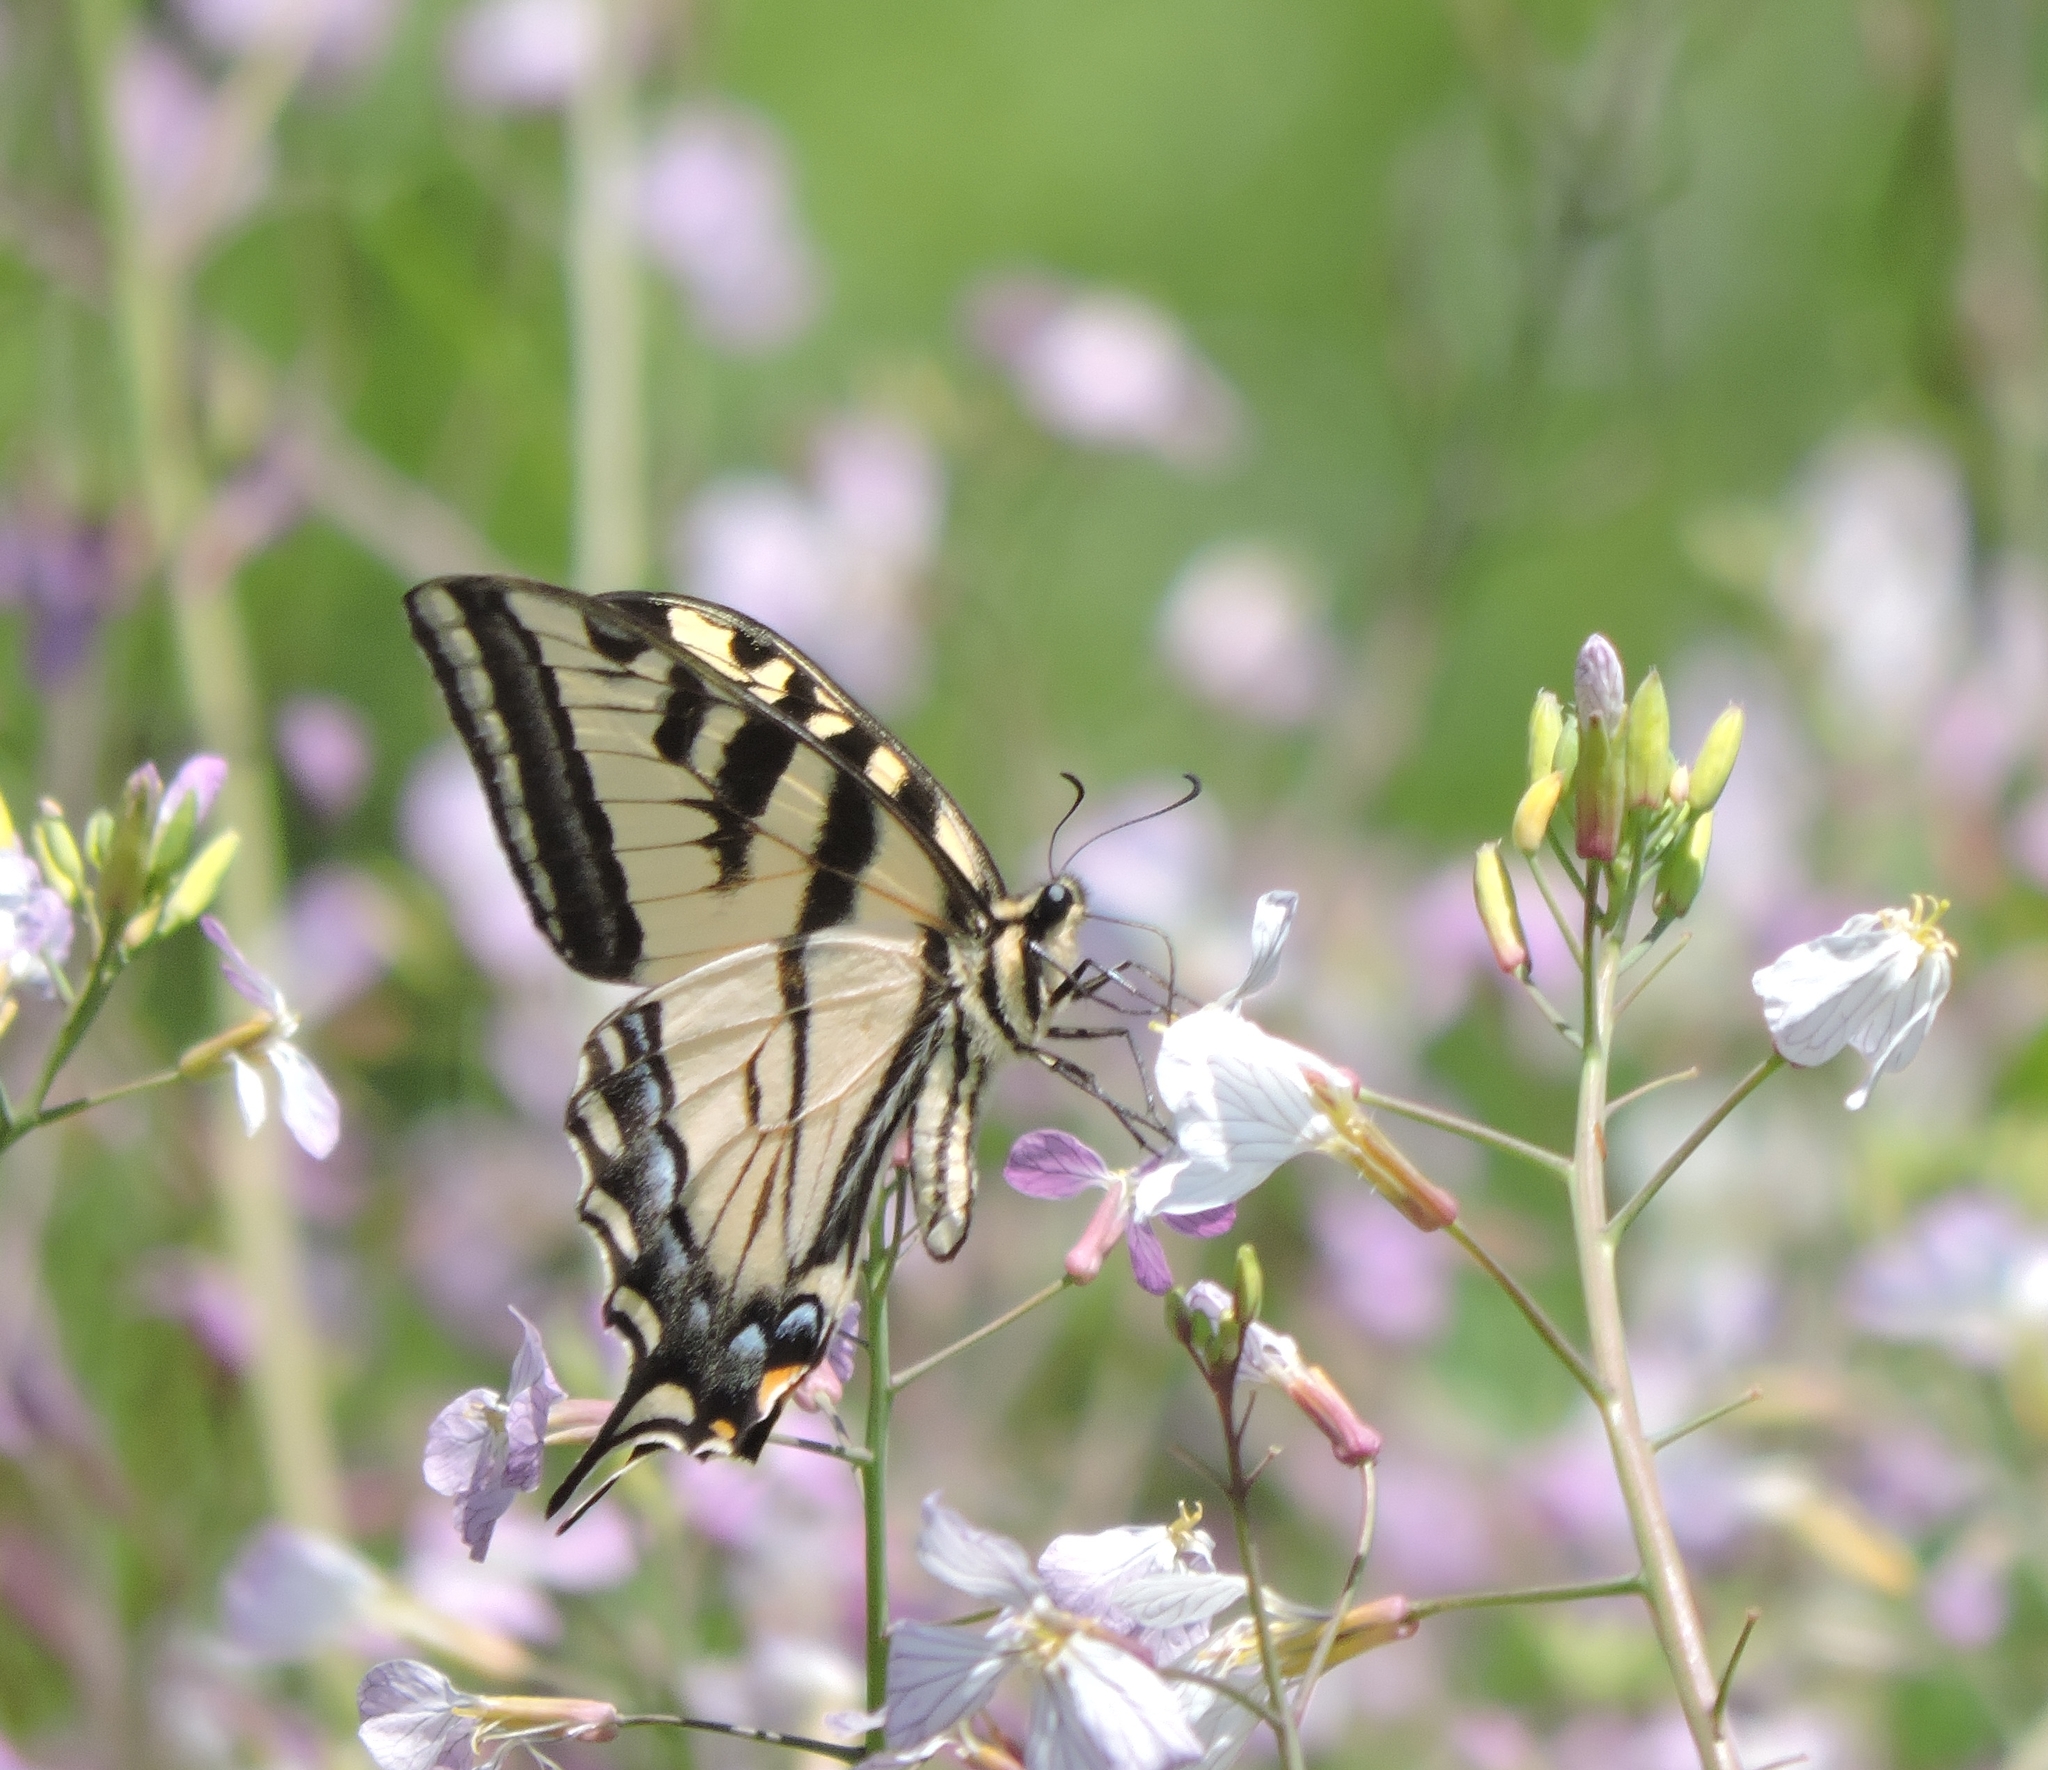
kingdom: Animalia
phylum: Arthropoda
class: Insecta
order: Lepidoptera
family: Papilionidae
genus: Papilio
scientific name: Papilio rutulus
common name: Western tiger swallowtail
